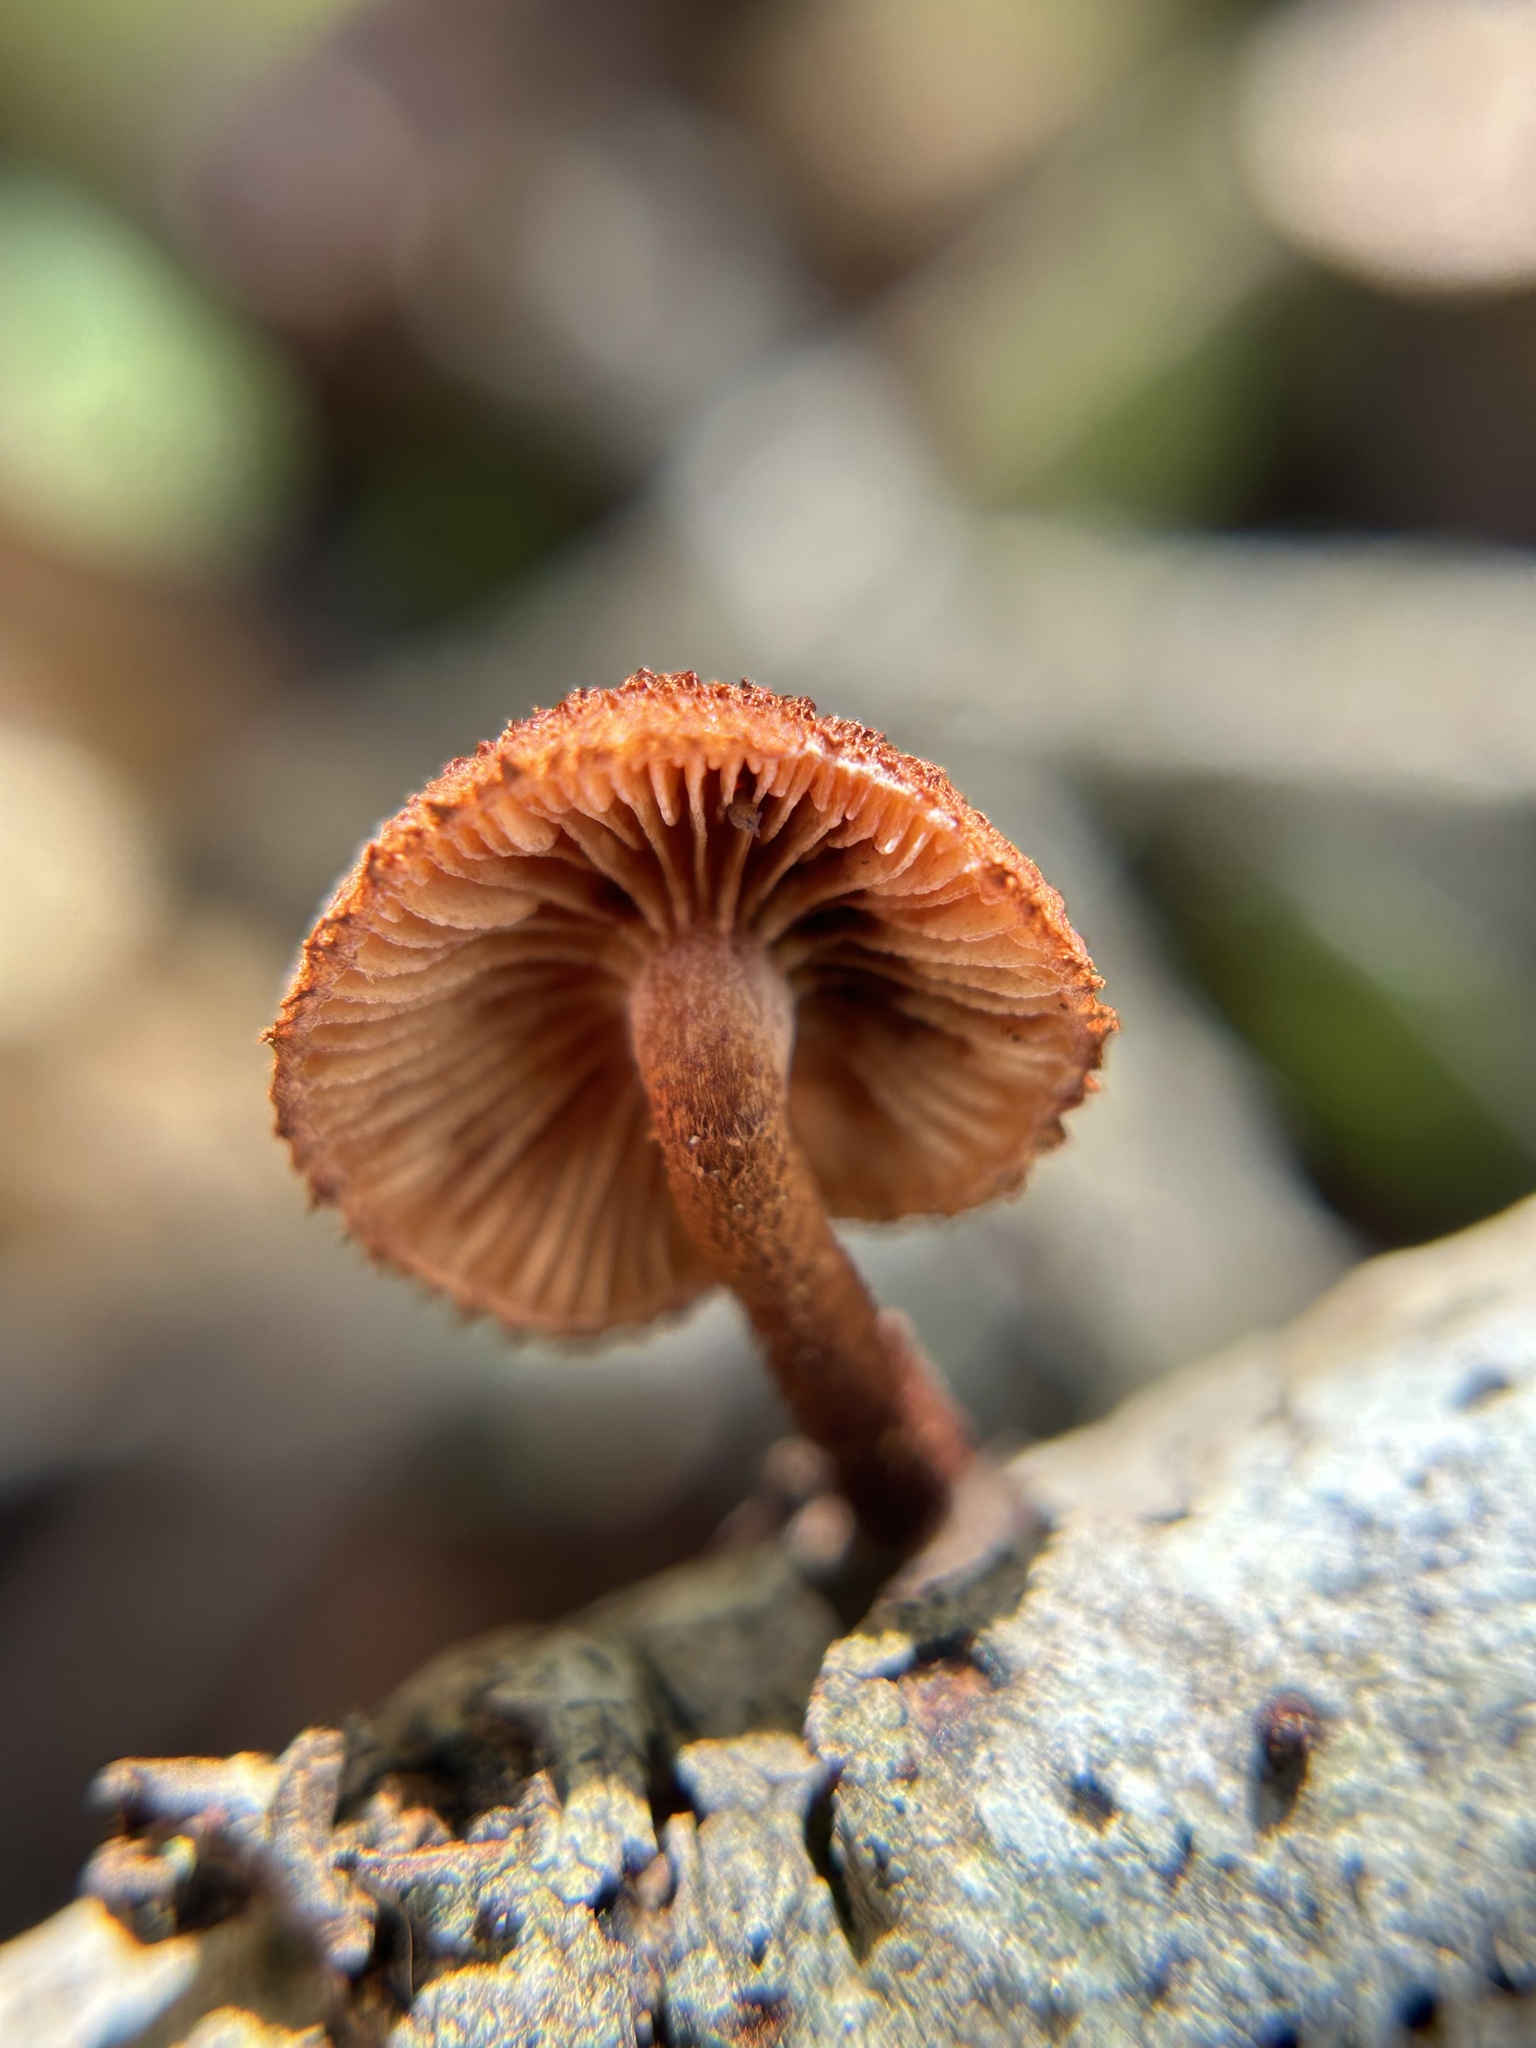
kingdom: Fungi
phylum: Basidiomycota
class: Agaricomycetes
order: Agaricales
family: Tubariaceae
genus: Phaeomarasmius
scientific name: Phaeomarasmius erinaceus
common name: Hedgehog scalycap
